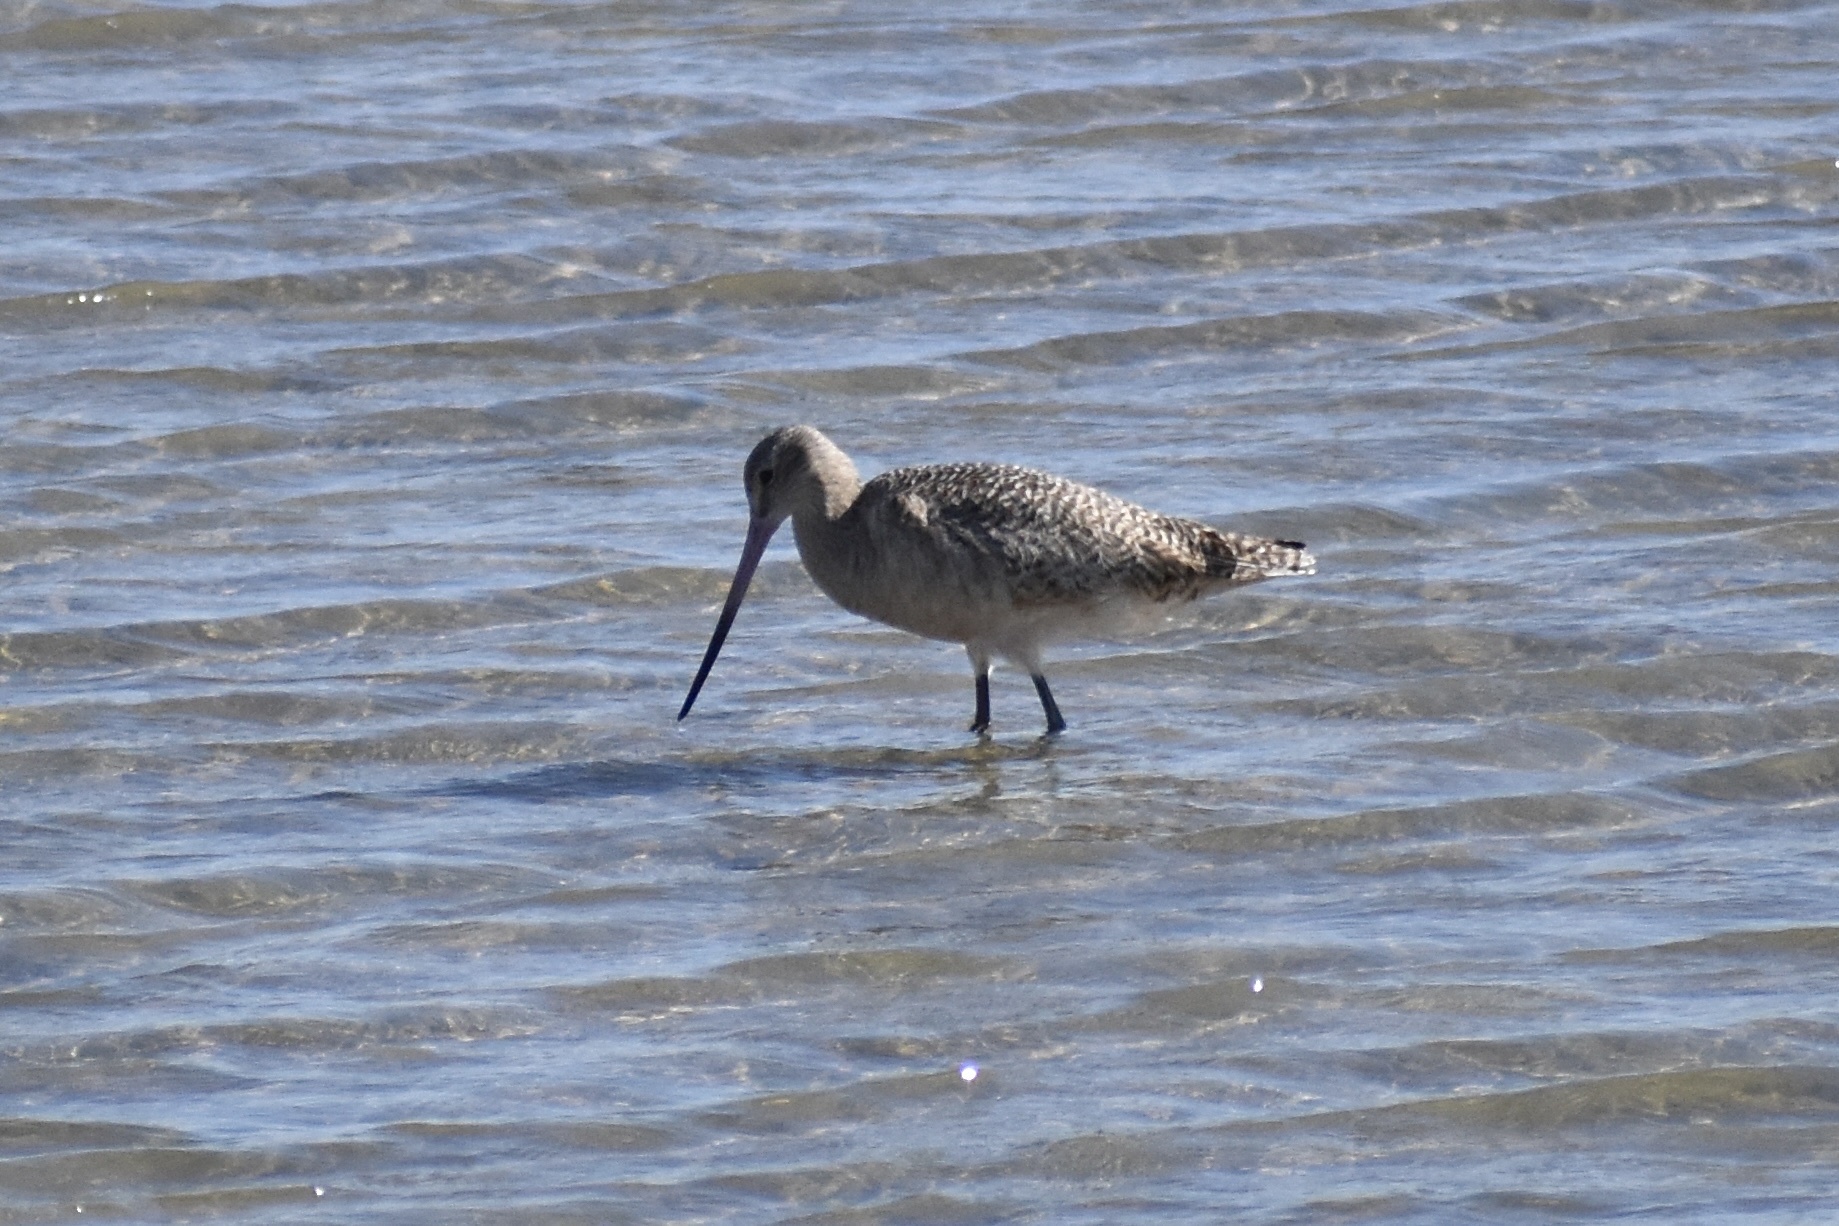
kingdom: Animalia
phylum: Chordata
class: Aves
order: Charadriiformes
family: Scolopacidae
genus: Limosa
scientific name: Limosa fedoa
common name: Marbled godwit
